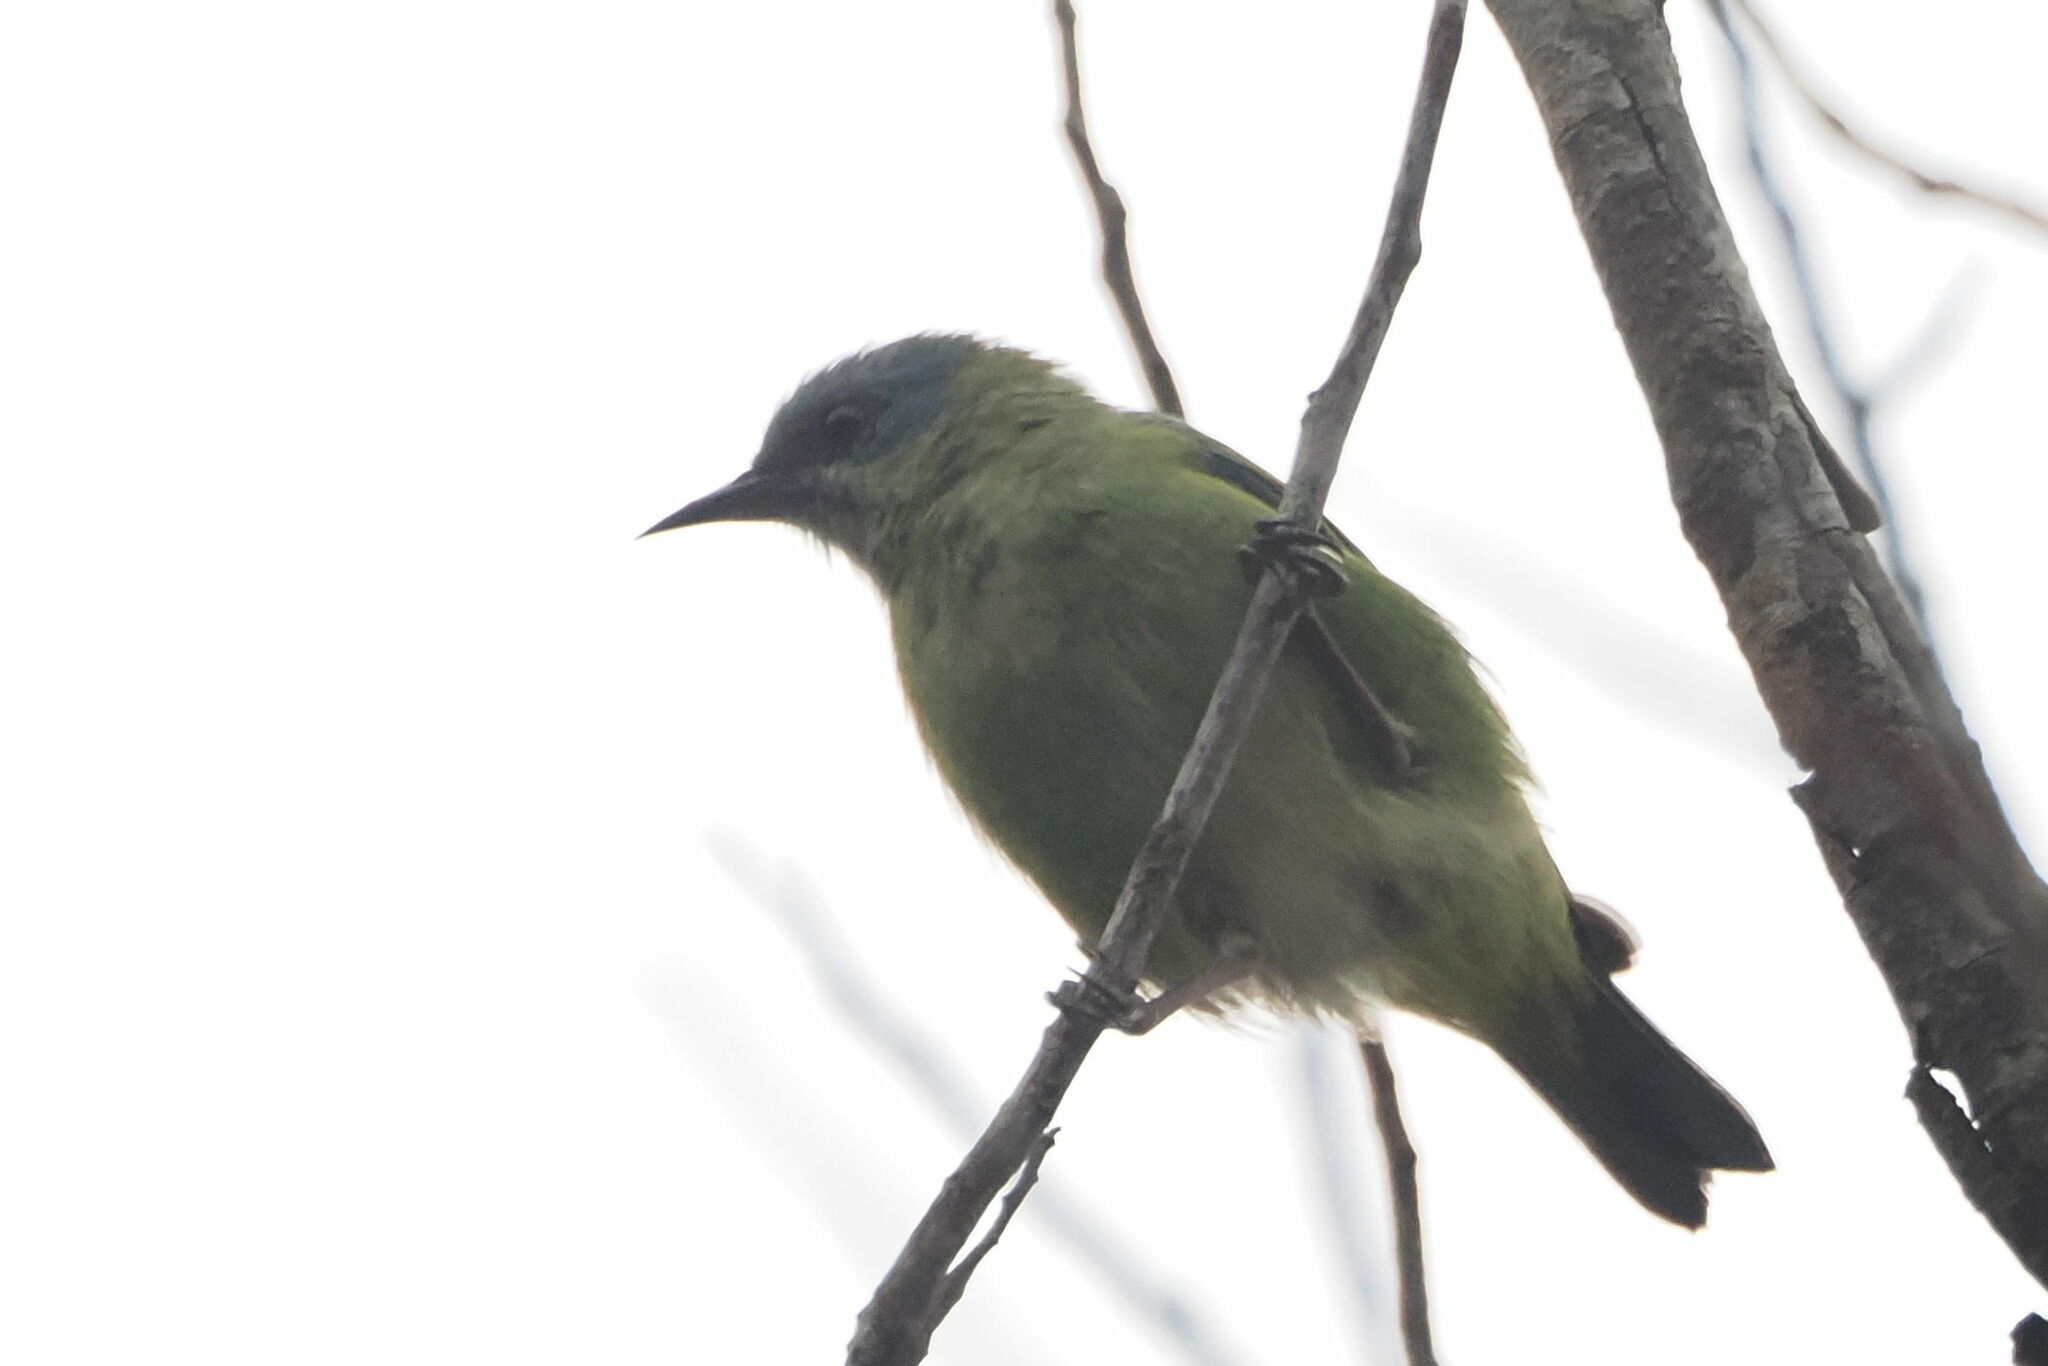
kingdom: Animalia
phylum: Chordata
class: Aves
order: Passeriformes
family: Thraupidae
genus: Dacnis
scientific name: Dacnis cayana
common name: Blue dacnis
